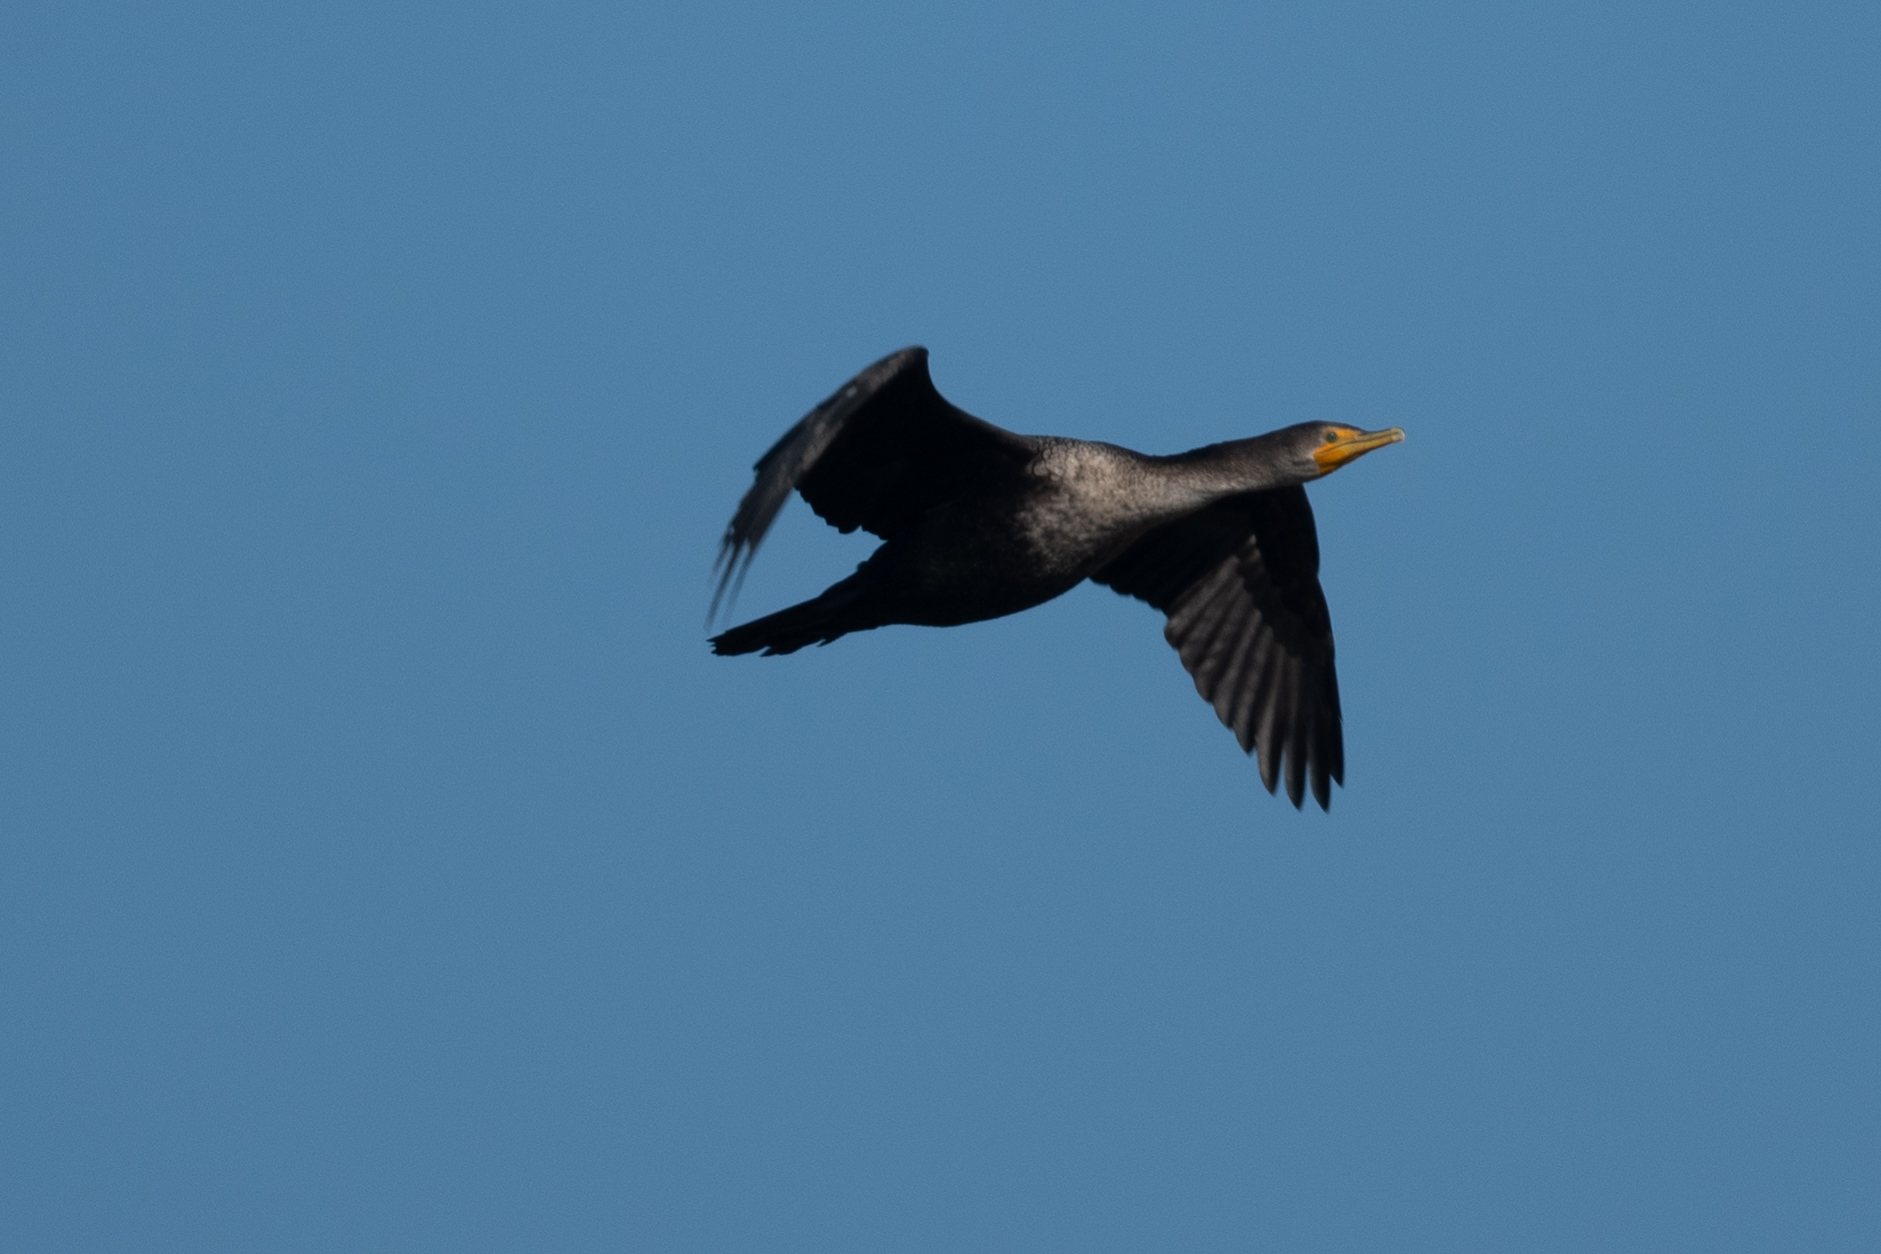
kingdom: Animalia
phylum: Chordata
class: Aves
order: Suliformes
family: Phalacrocoracidae
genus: Phalacrocorax
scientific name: Phalacrocorax auritus
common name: Double-crested cormorant
